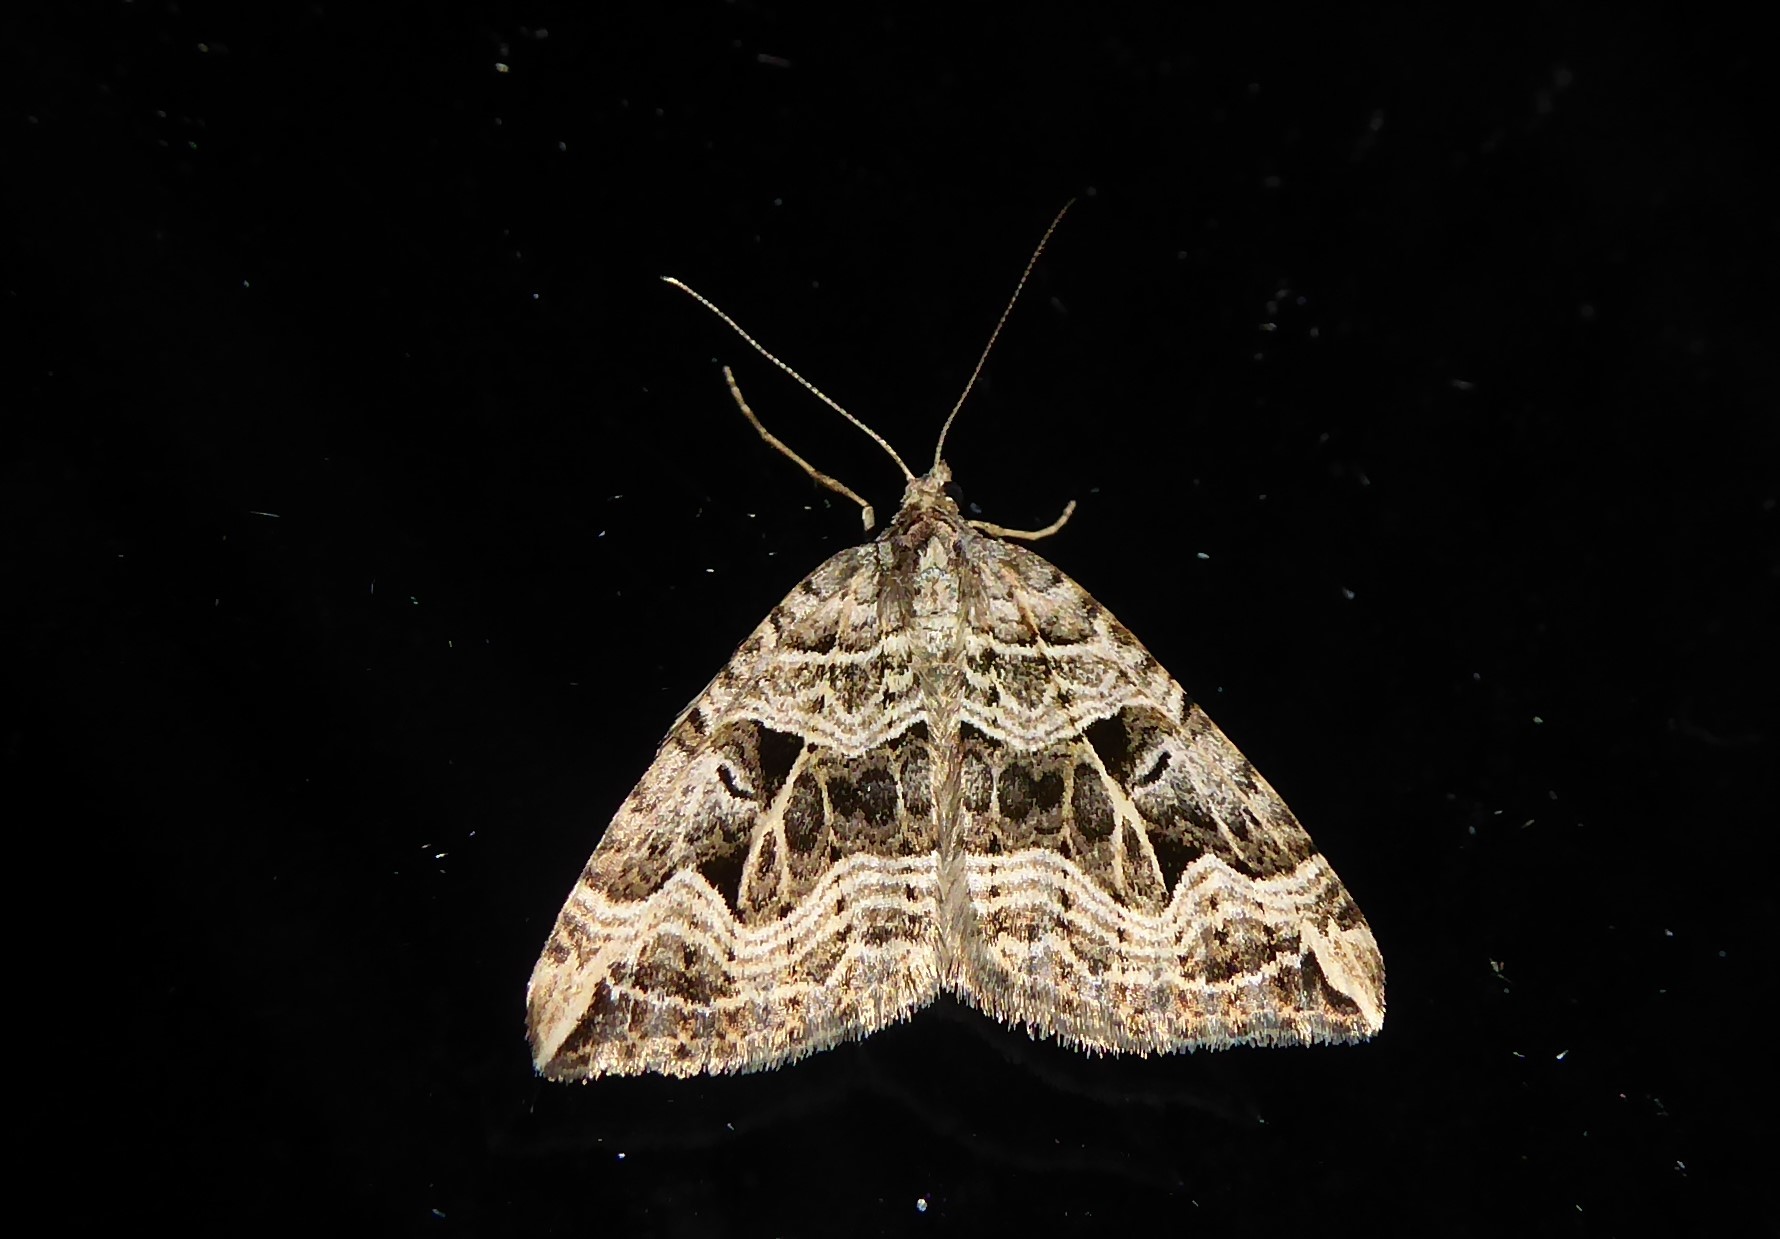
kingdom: Animalia
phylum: Arthropoda
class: Insecta
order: Lepidoptera
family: Geometridae
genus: Xanthorhoe
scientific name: Xanthorhoe semifissata
